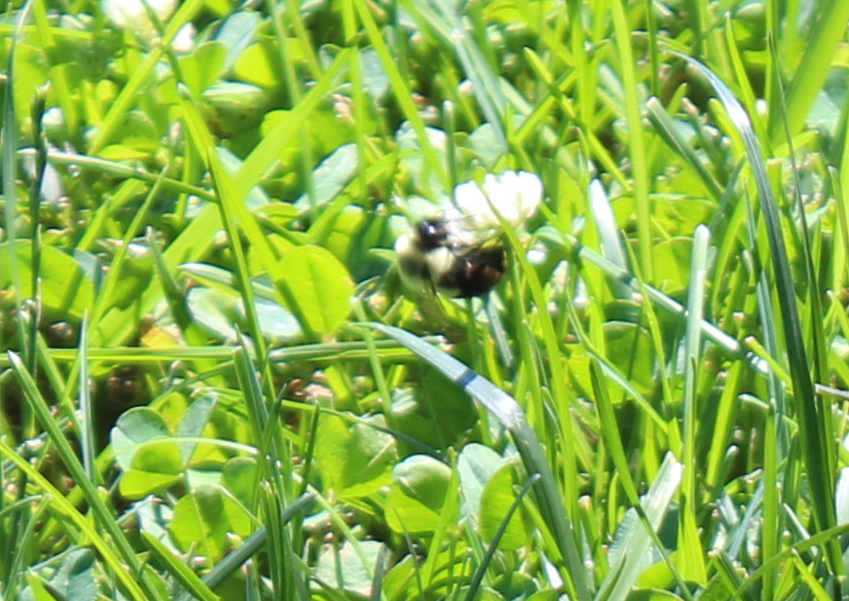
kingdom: Animalia
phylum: Arthropoda
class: Insecta
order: Hymenoptera
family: Apidae
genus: Bombus
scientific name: Bombus impatiens
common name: Common eastern bumble bee
